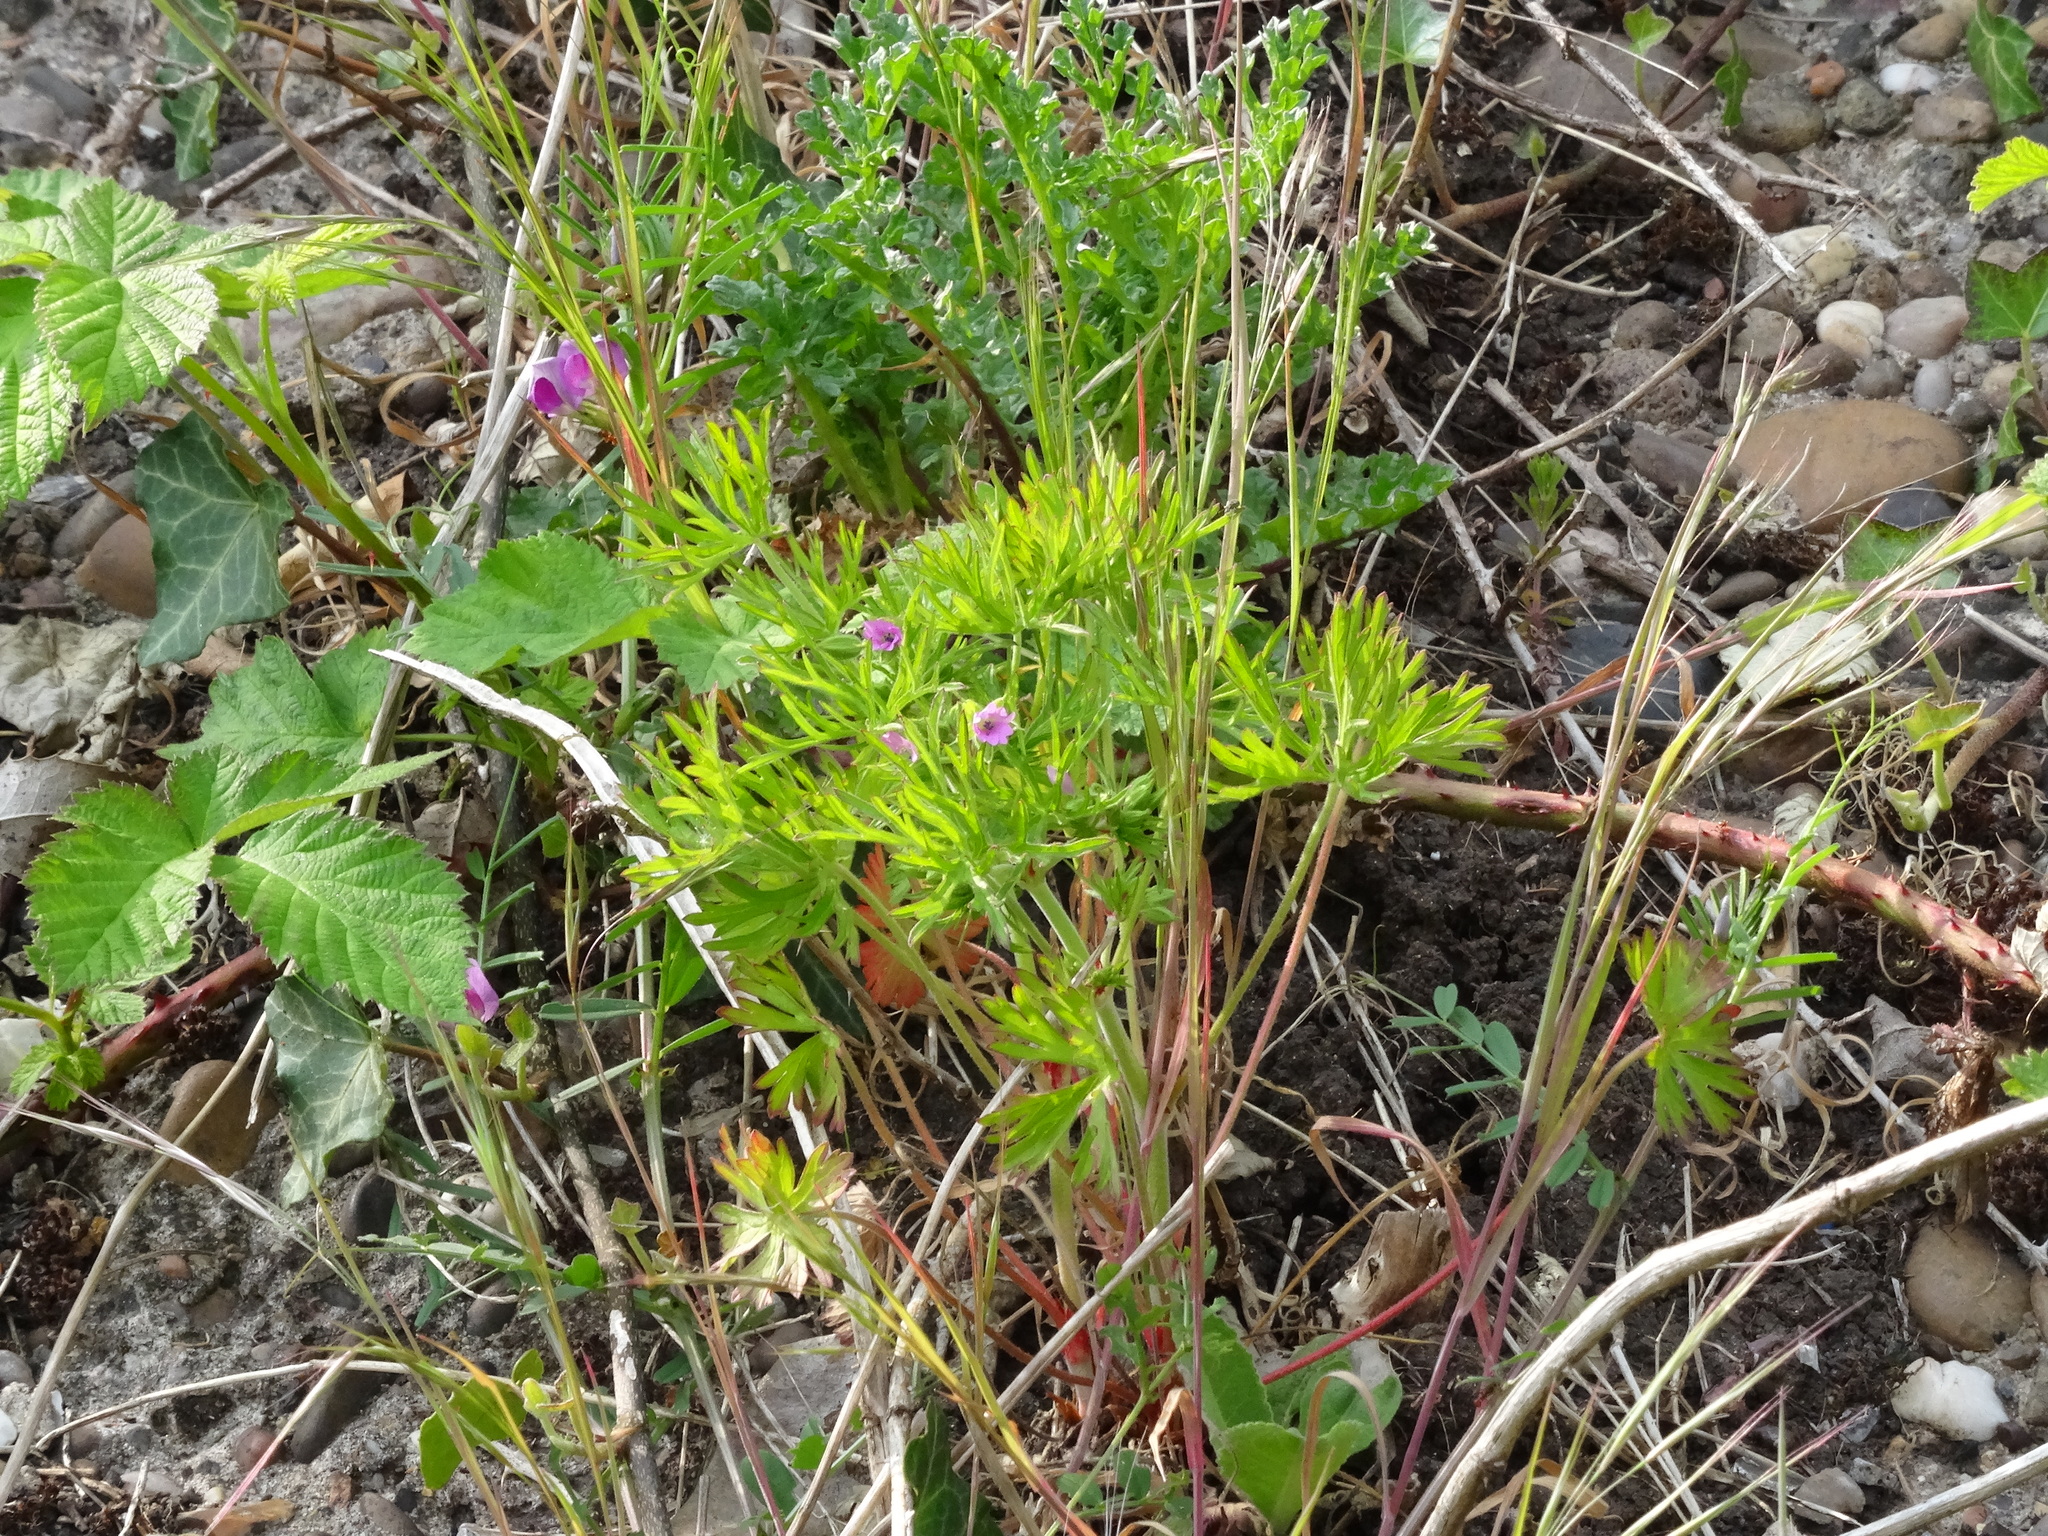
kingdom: Plantae
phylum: Tracheophyta
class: Magnoliopsida
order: Geraniales
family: Geraniaceae
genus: Geranium
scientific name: Geranium dissectum
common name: Cut-leaved crane's-bill
